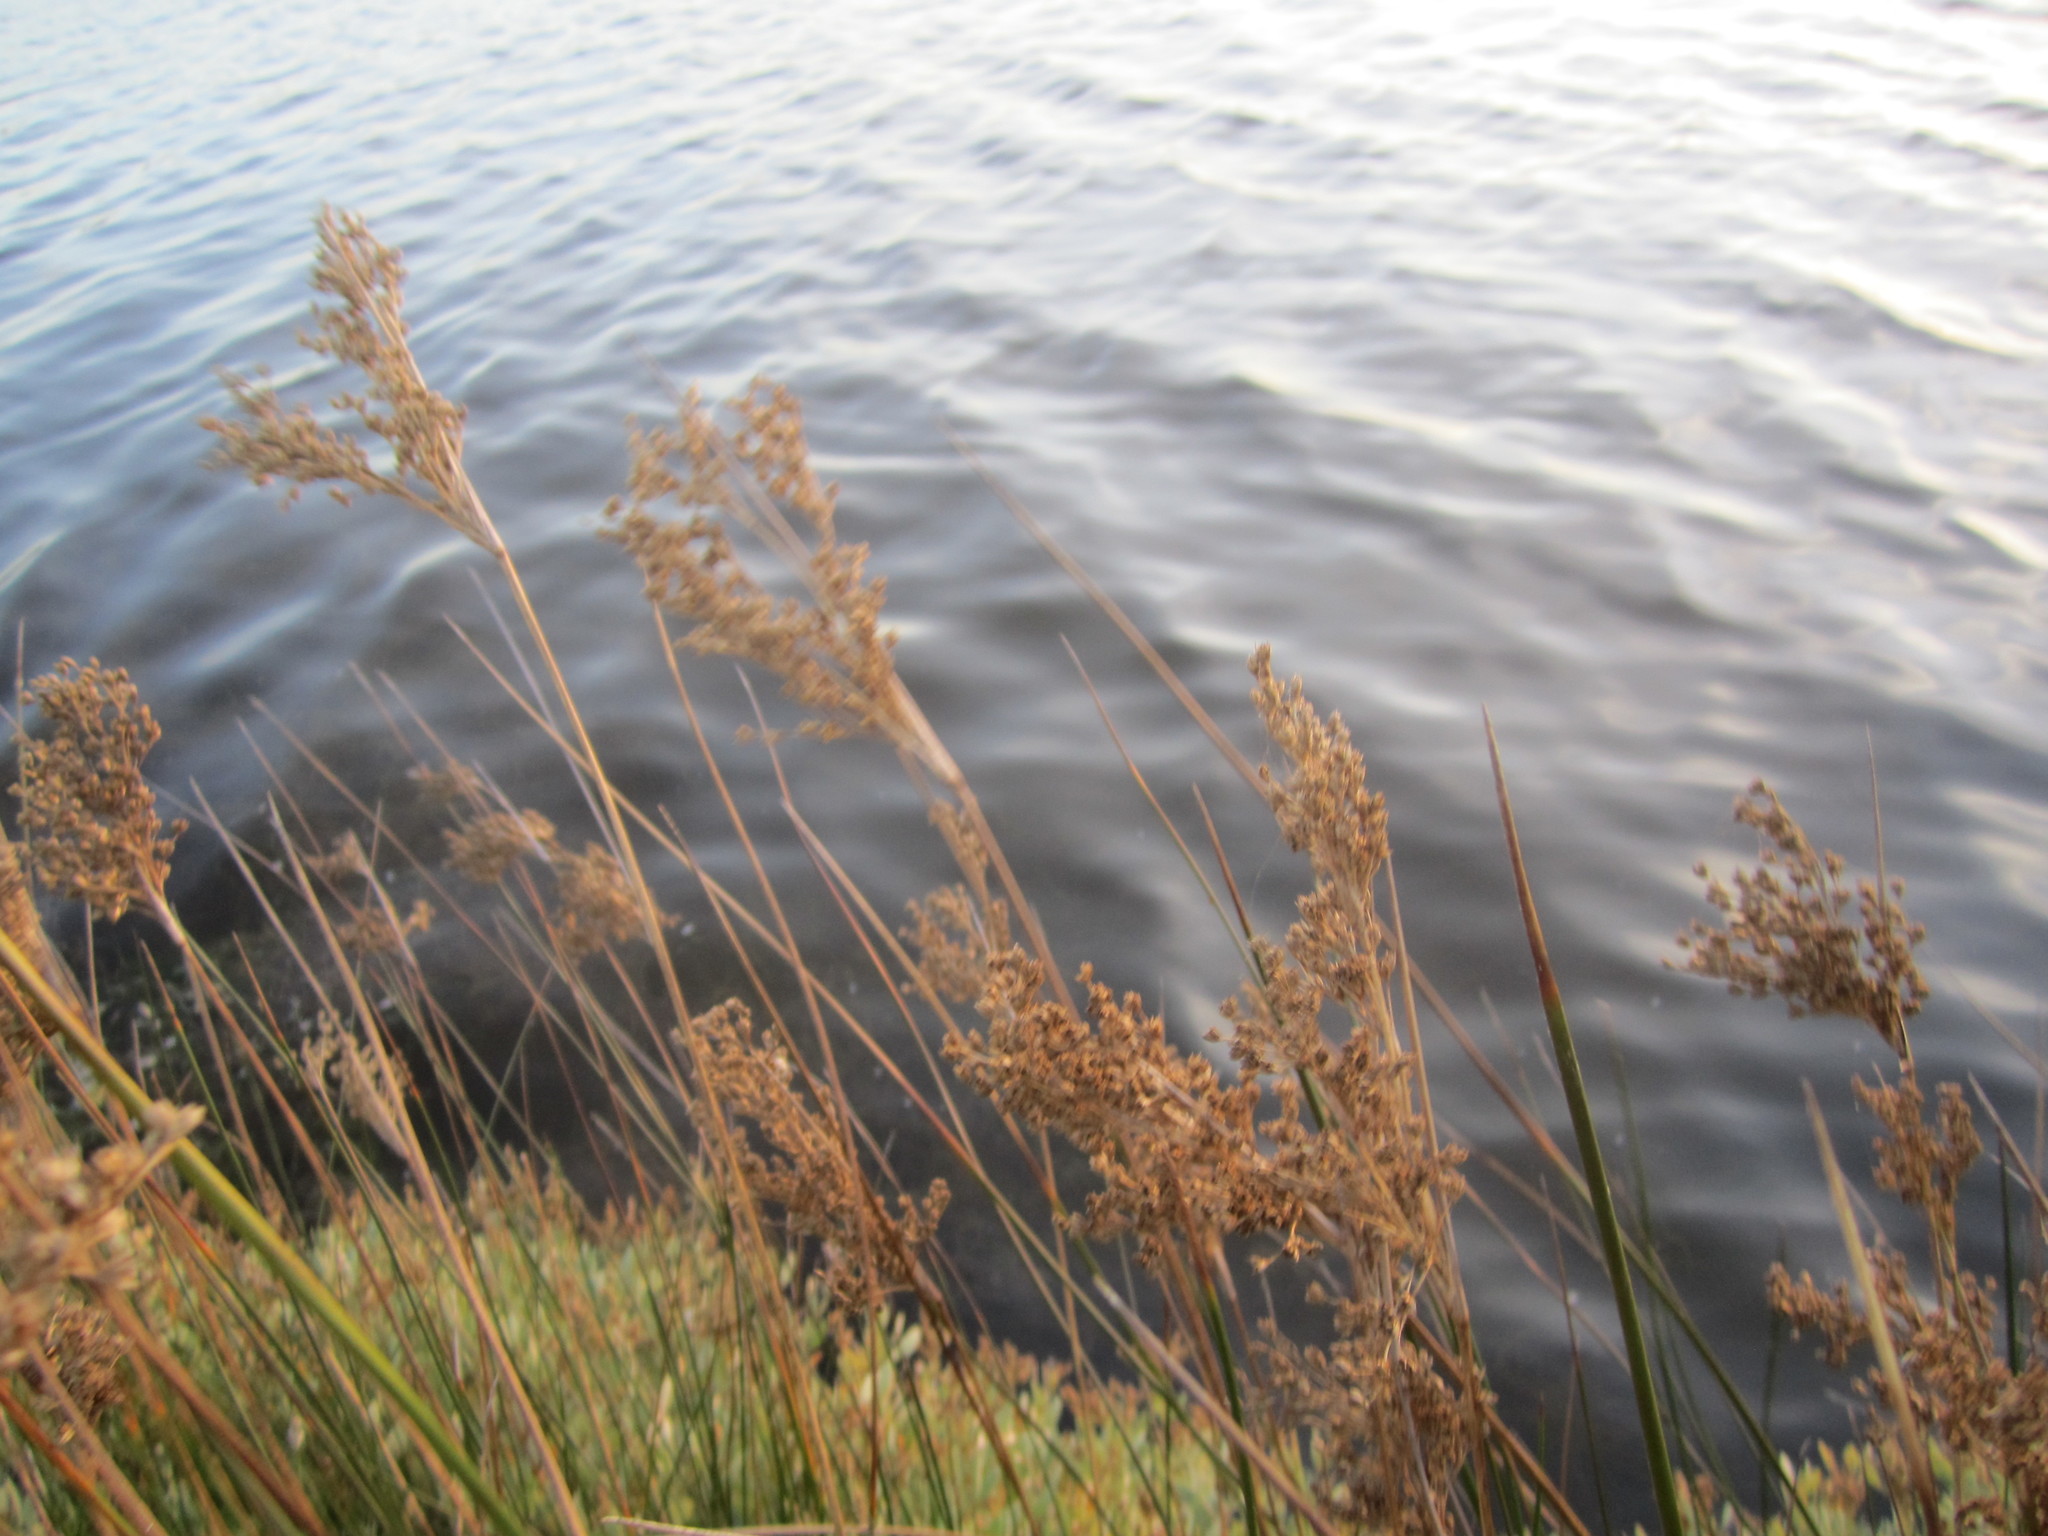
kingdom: Plantae
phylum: Tracheophyta
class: Liliopsida
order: Poales
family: Juncaceae
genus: Juncus
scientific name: Juncus maritimus
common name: Sea rush
